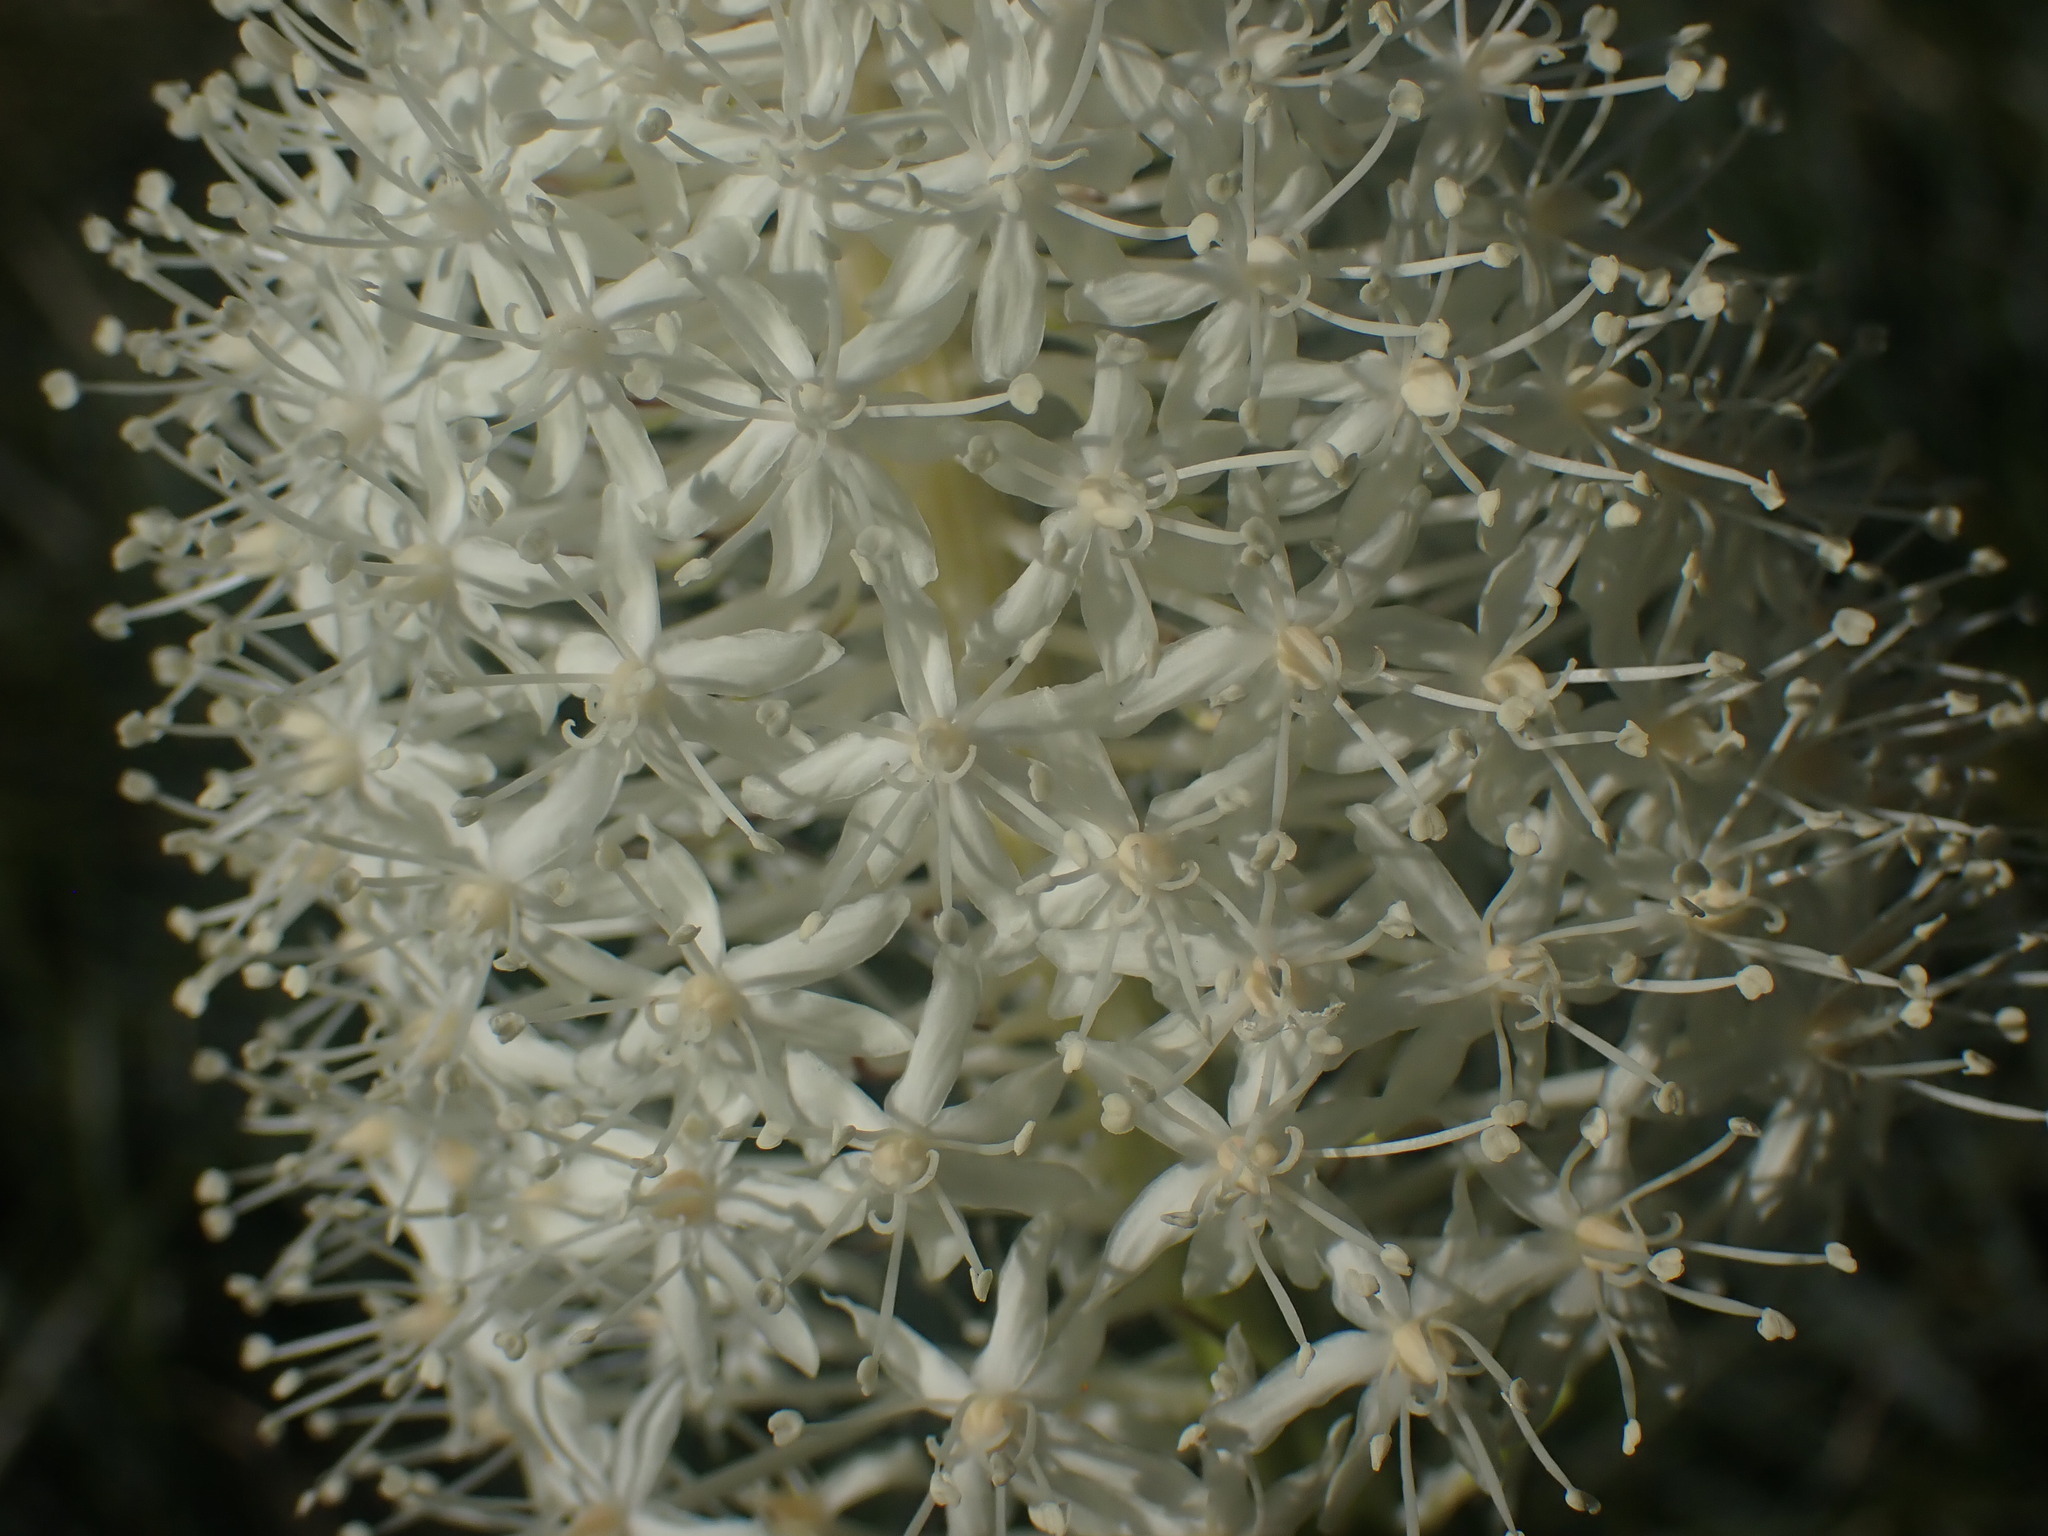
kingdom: Plantae
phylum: Tracheophyta
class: Liliopsida
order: Liliales
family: Melanthiaceae
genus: Xerophyllum
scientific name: Xerophyllum tenax
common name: Bear-grass
